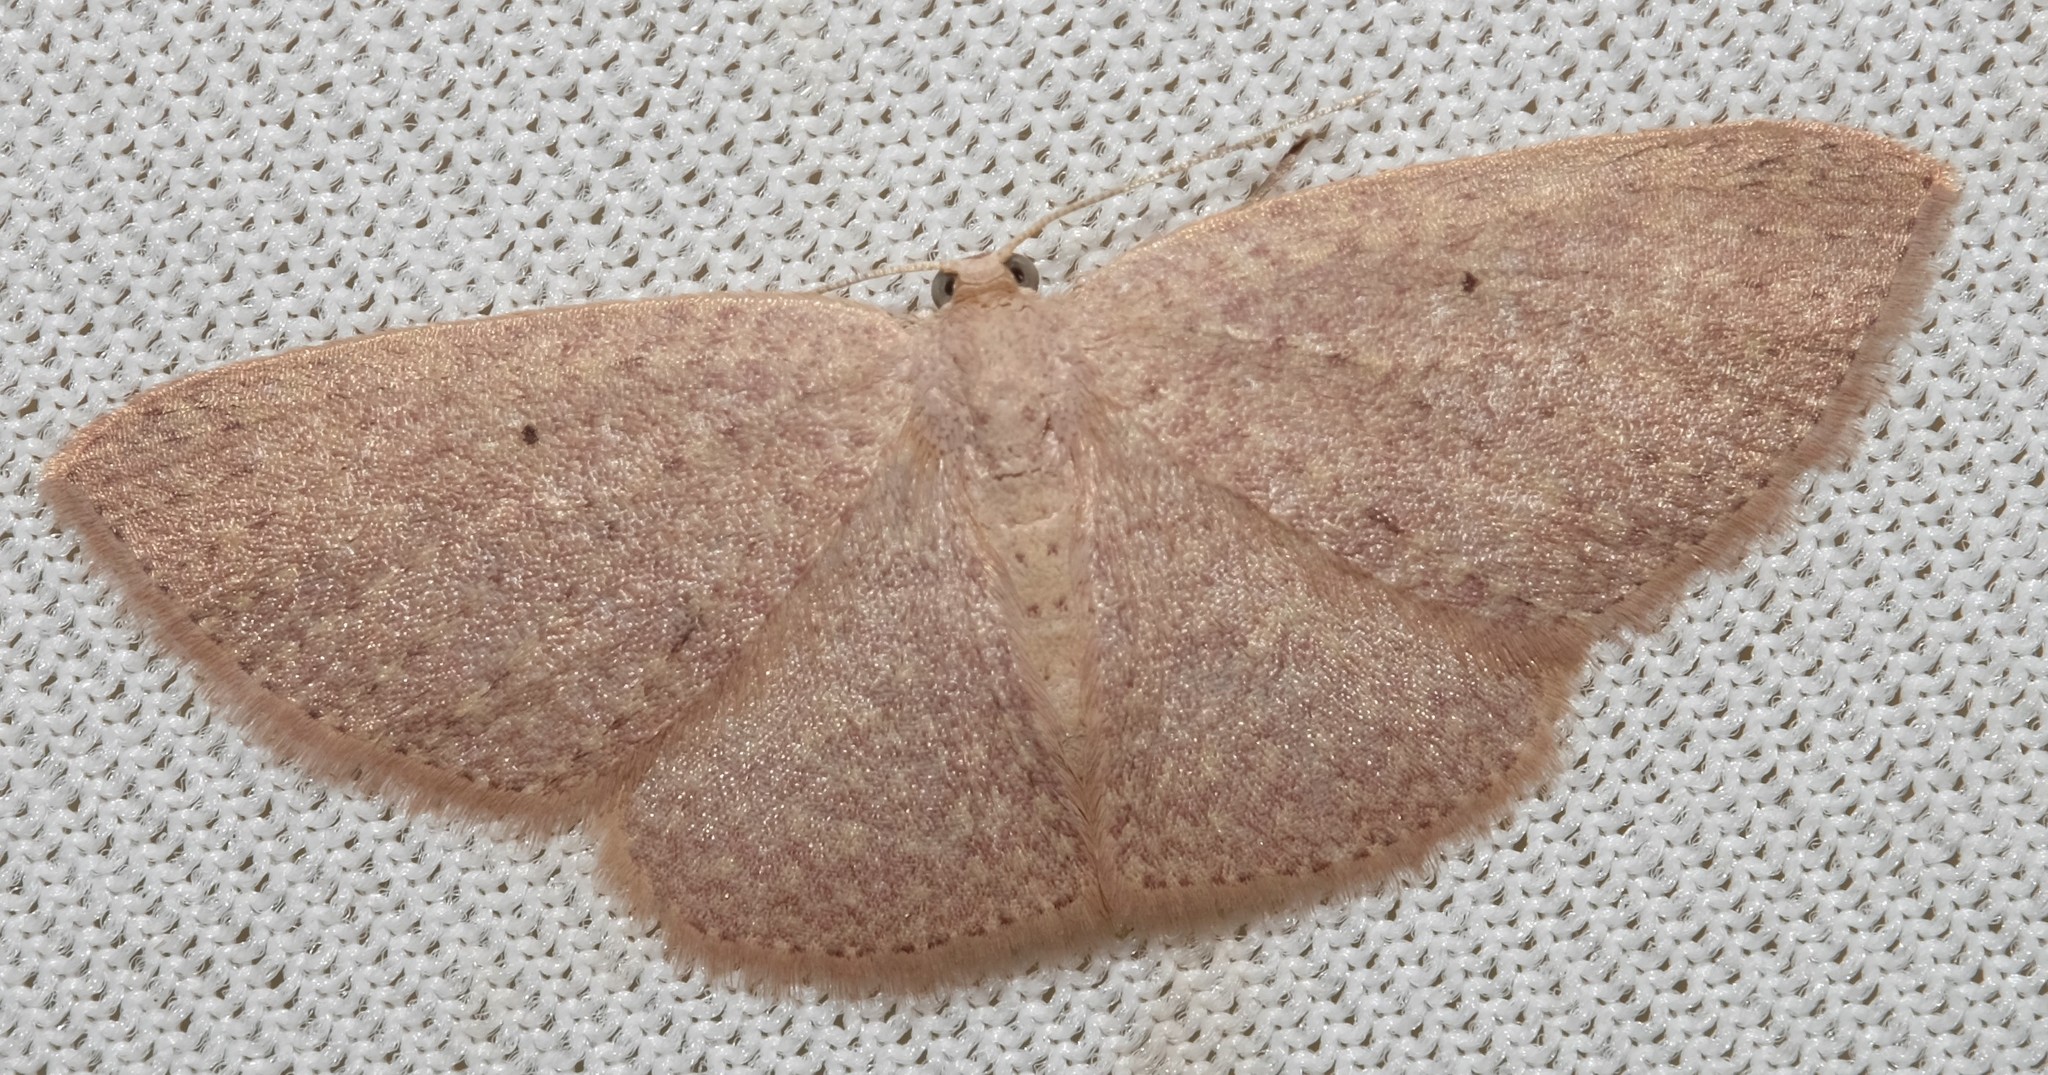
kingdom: Animalia
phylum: Arthropoda
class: Insecta
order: Lepidoptera
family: Geometridae
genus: Poecilasthena
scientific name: Poecilasthena xylocyma
